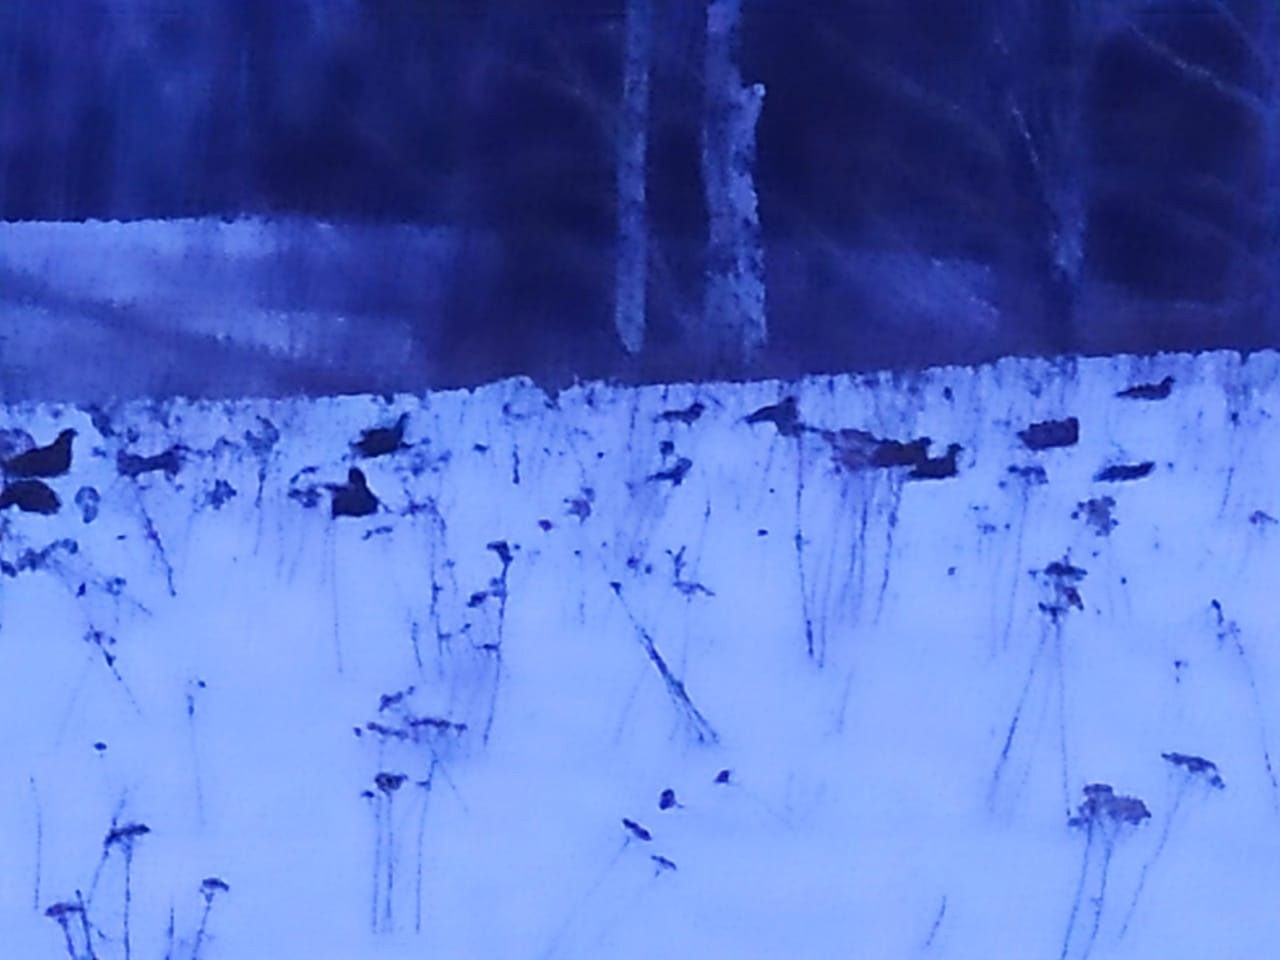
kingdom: Animalia
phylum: Chordata
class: Aves
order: Galliformes
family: Phasianidae
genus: Perdix
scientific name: Perdix perdix
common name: Grey partridge
